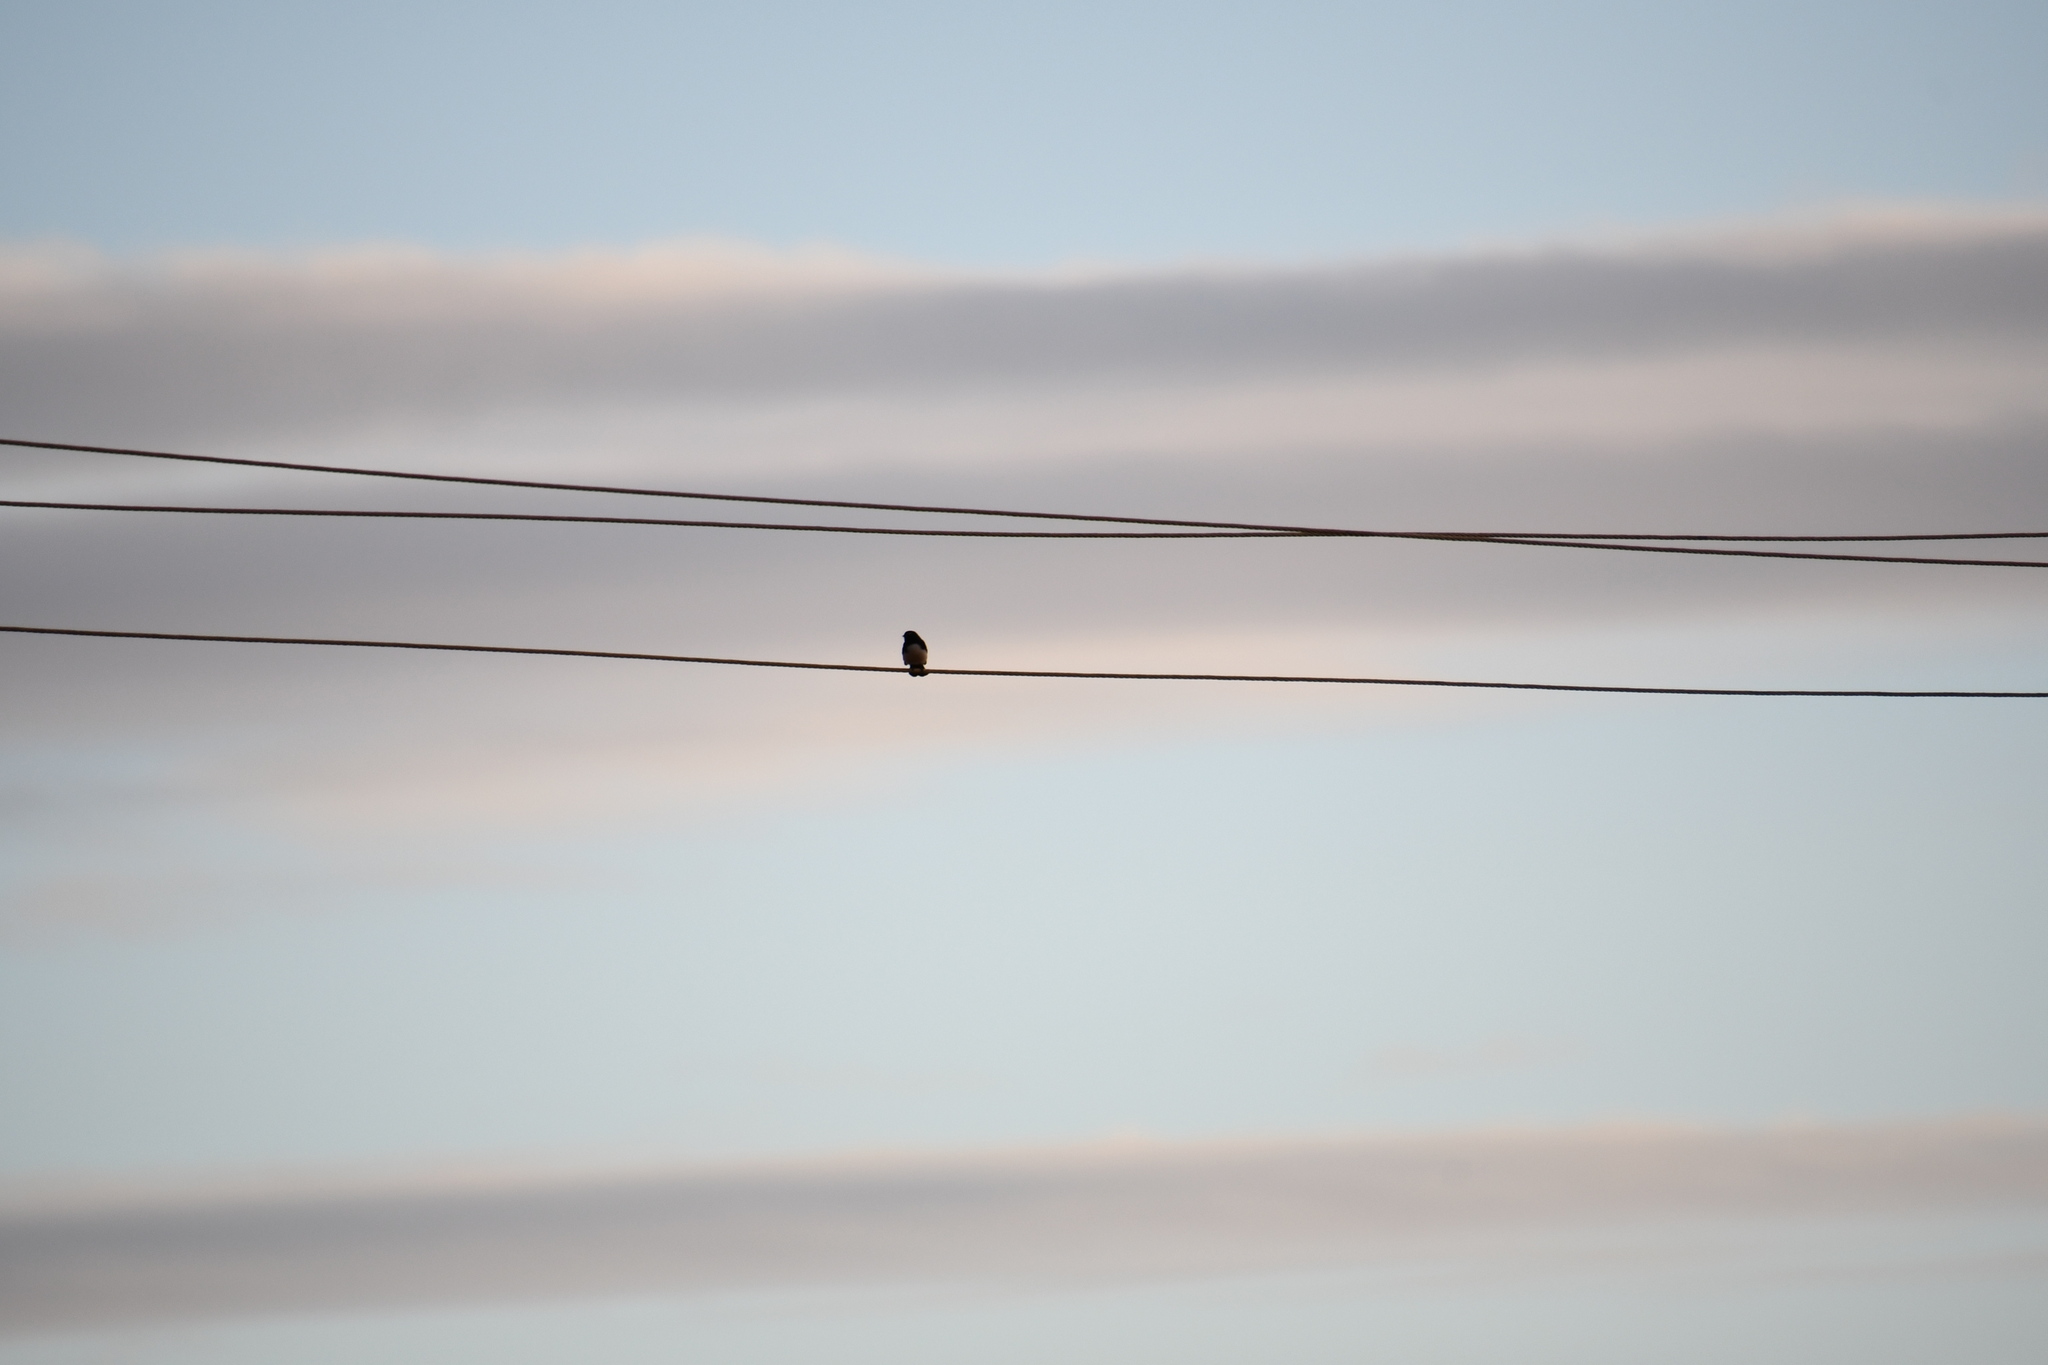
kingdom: Animalia
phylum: Chordata
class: Aves
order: Passeriformes
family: Rhipiduridae
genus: Rhipidura
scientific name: Rhipidura leucophrys
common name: Willie wagtail
